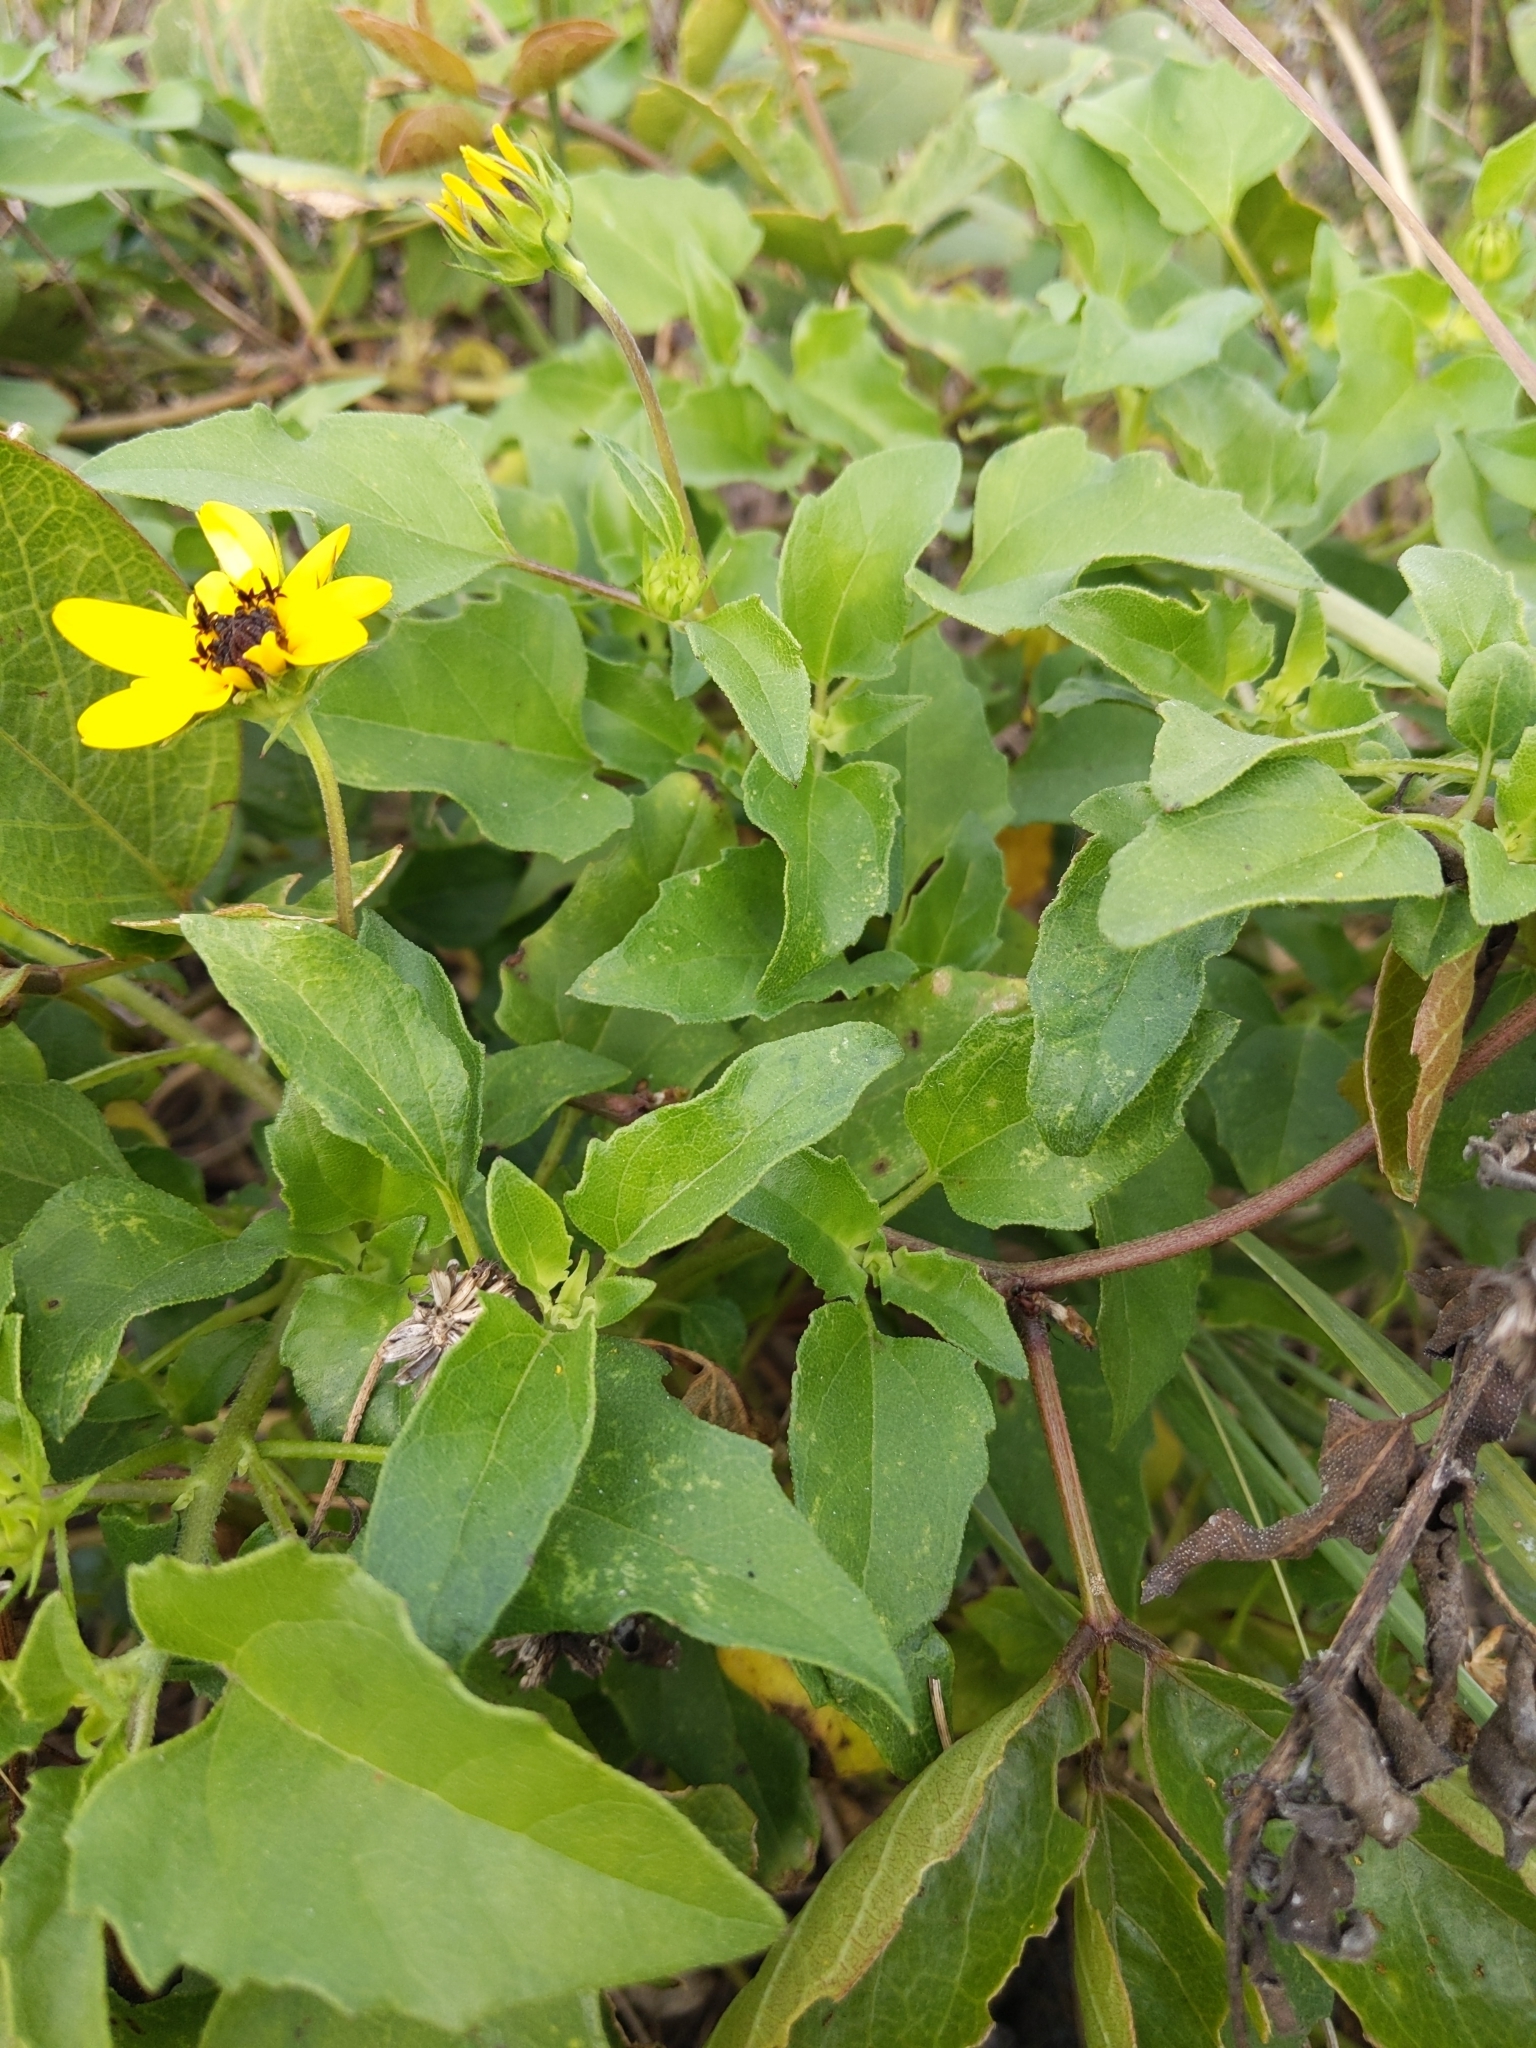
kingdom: Plantae
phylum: Tracheophyta
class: Magnoliopsida
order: Asterales
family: Asteraceae
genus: Helianthus
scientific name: Helianthus debilis
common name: Weak sunflower
